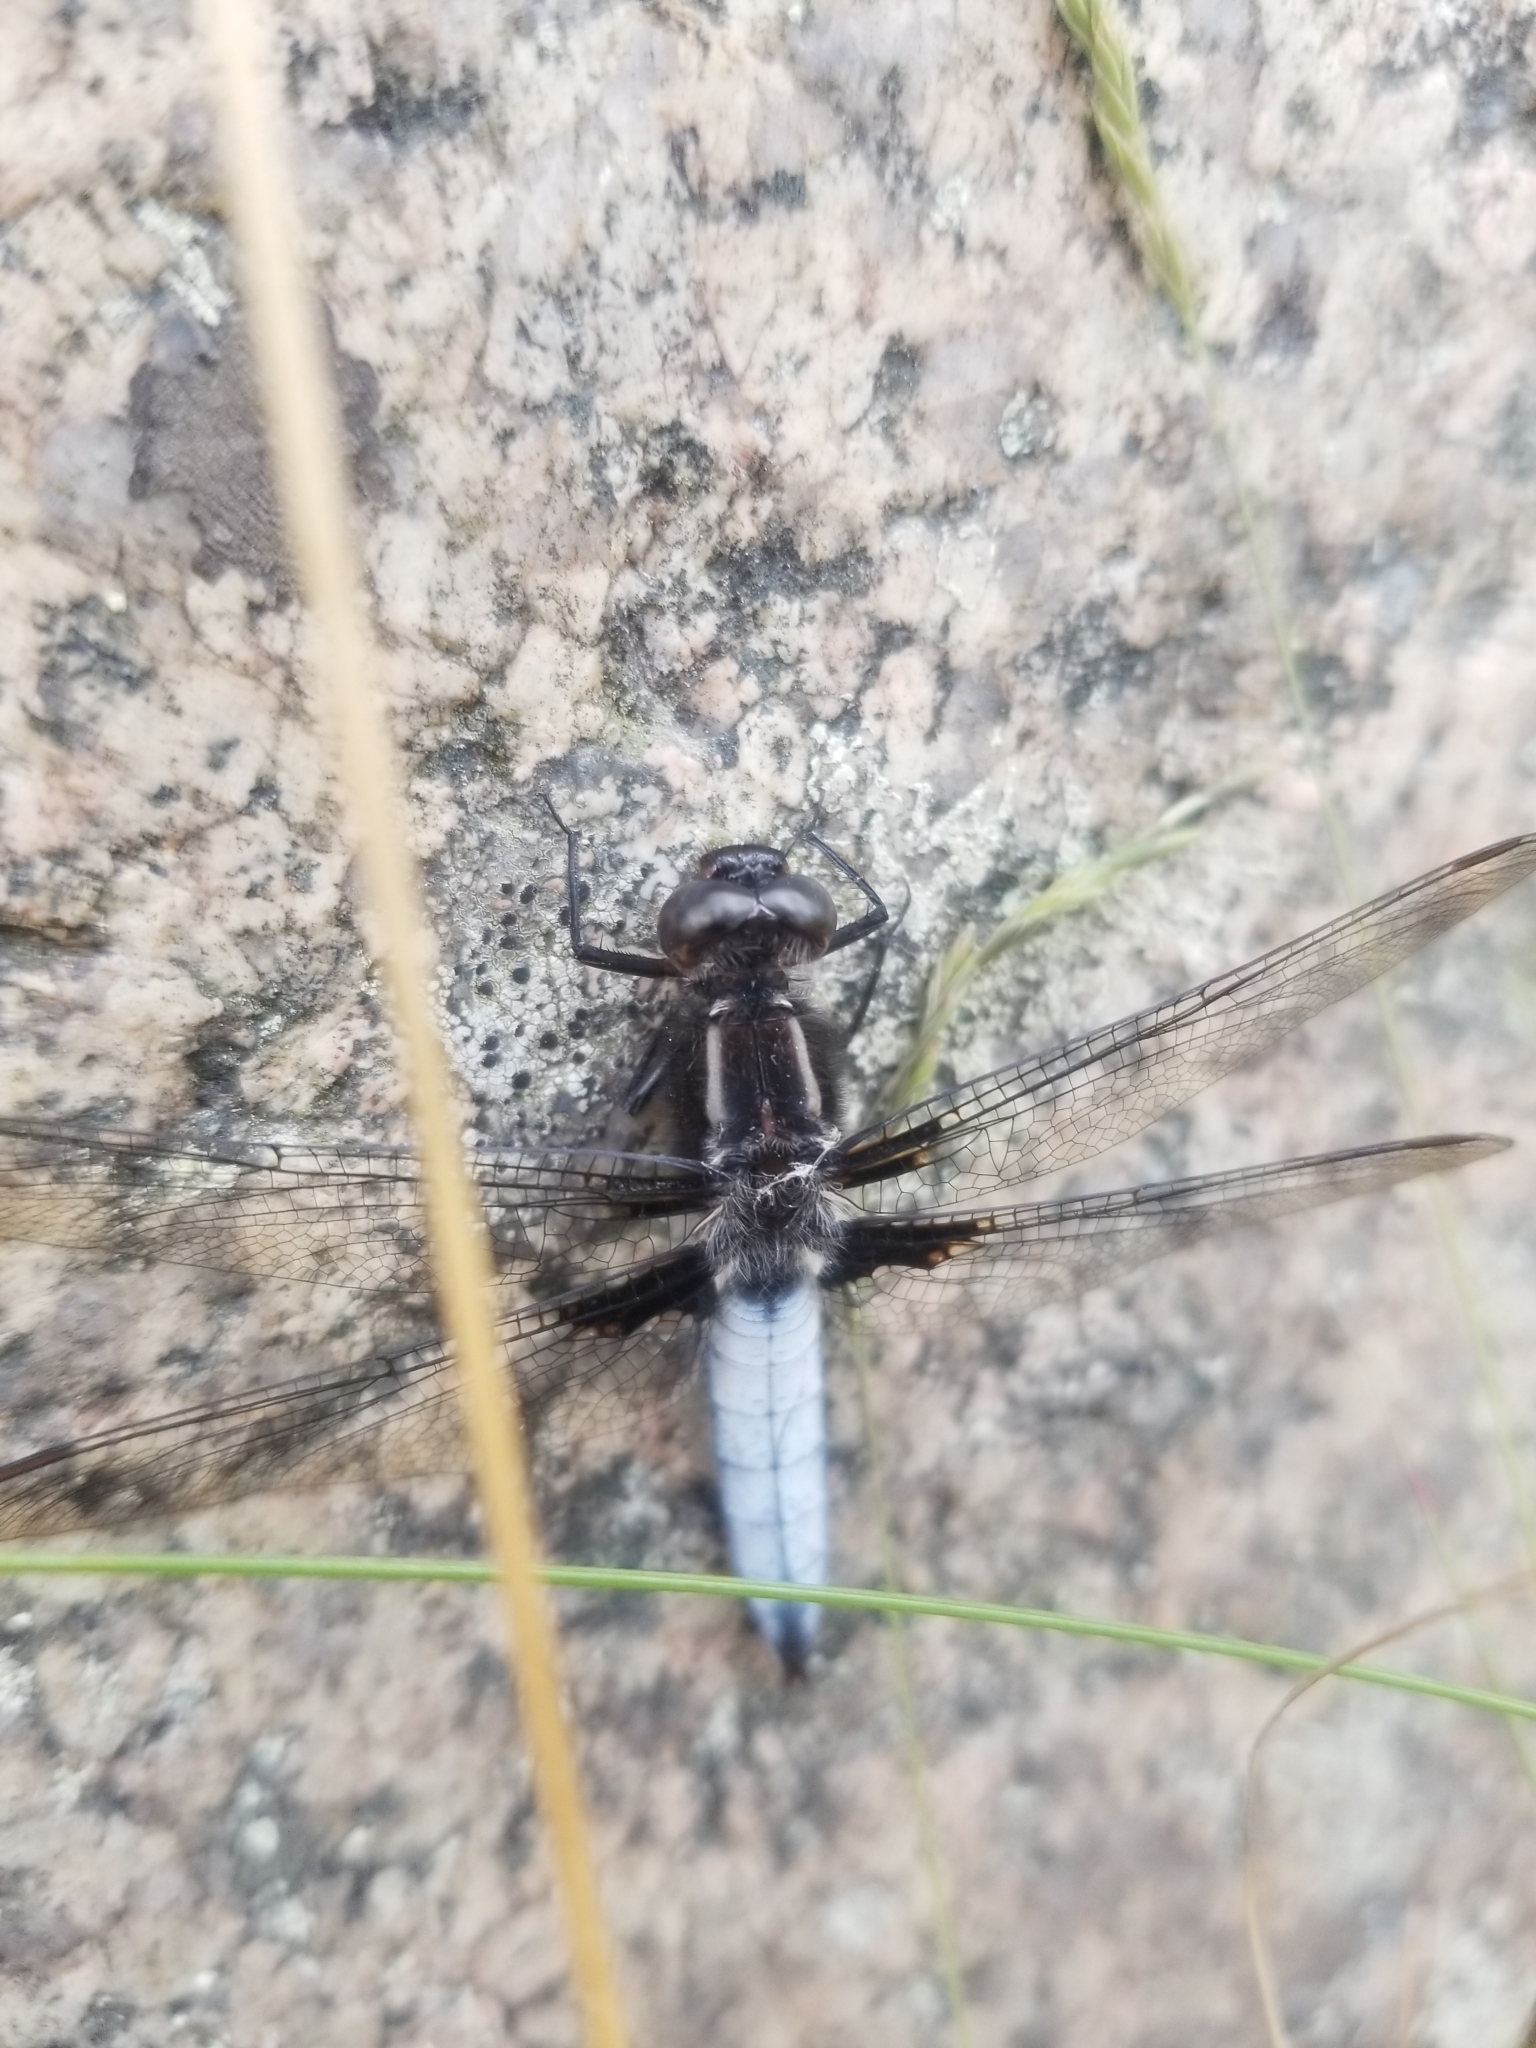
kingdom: Animalia
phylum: Arthropoda
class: Insecta
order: Odonata
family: Libellulidae
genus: Ladona
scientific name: Ladona exusta
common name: Libellule embrasée
